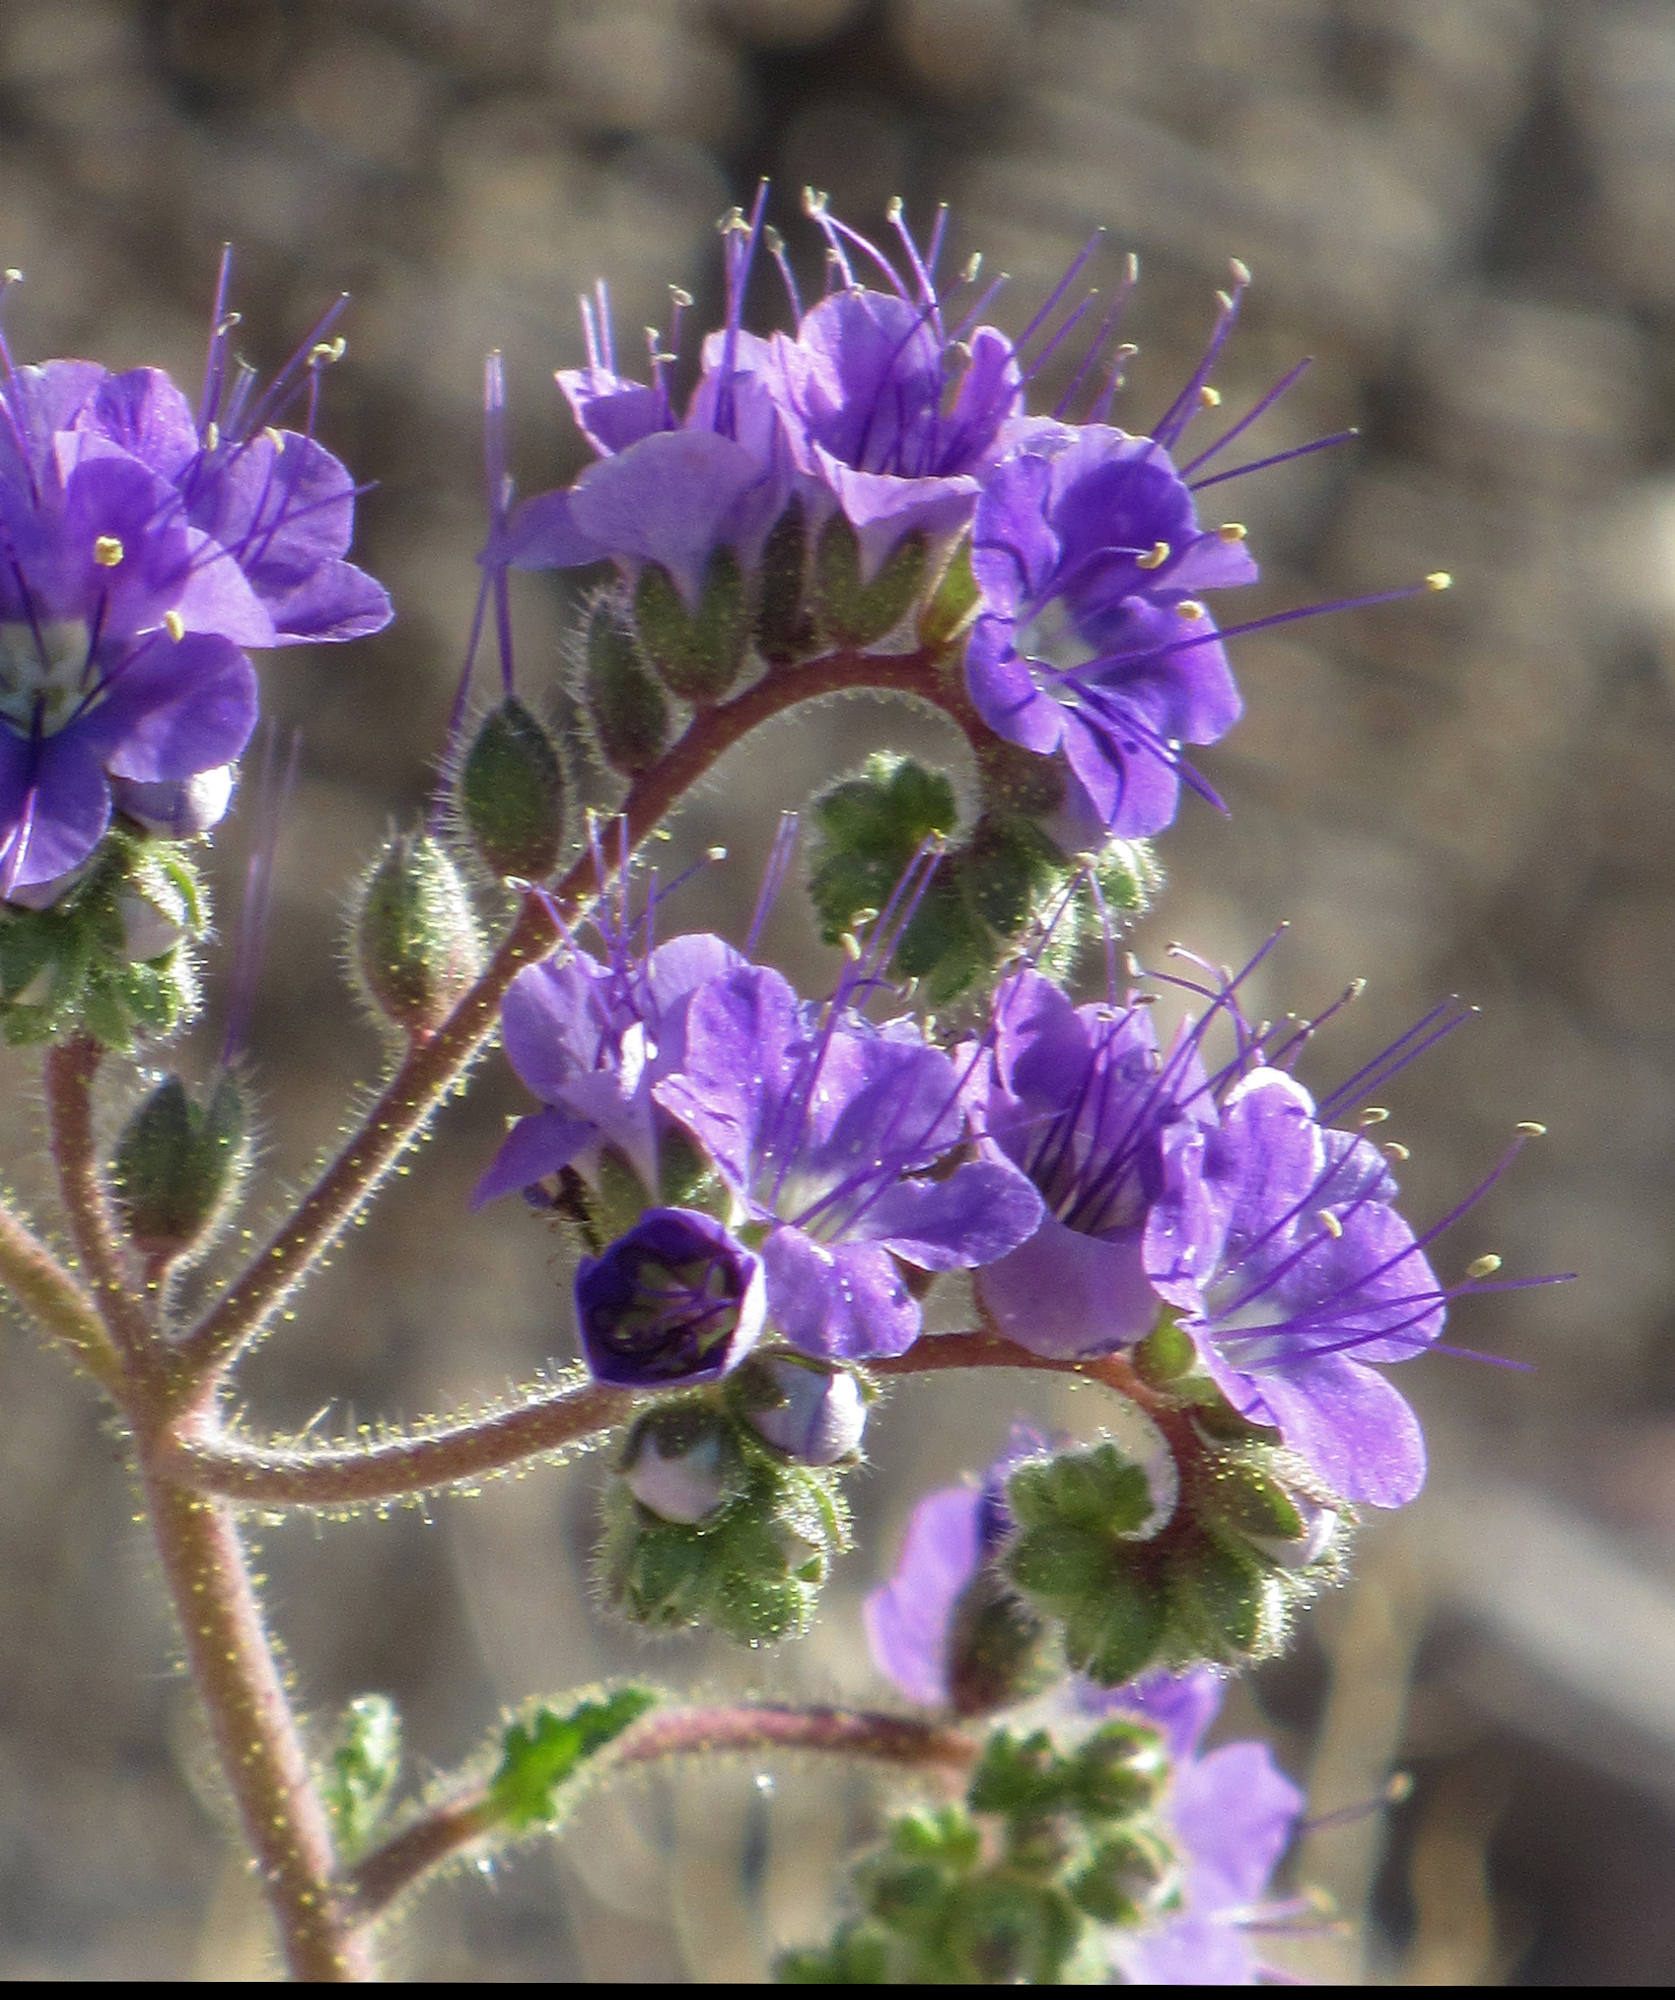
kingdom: Plantae
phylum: Tracheophyta
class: Magnoliopsida
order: Boraginales
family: Hydrophyllaceae
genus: Phacelia
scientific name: Phacelia crenulata
